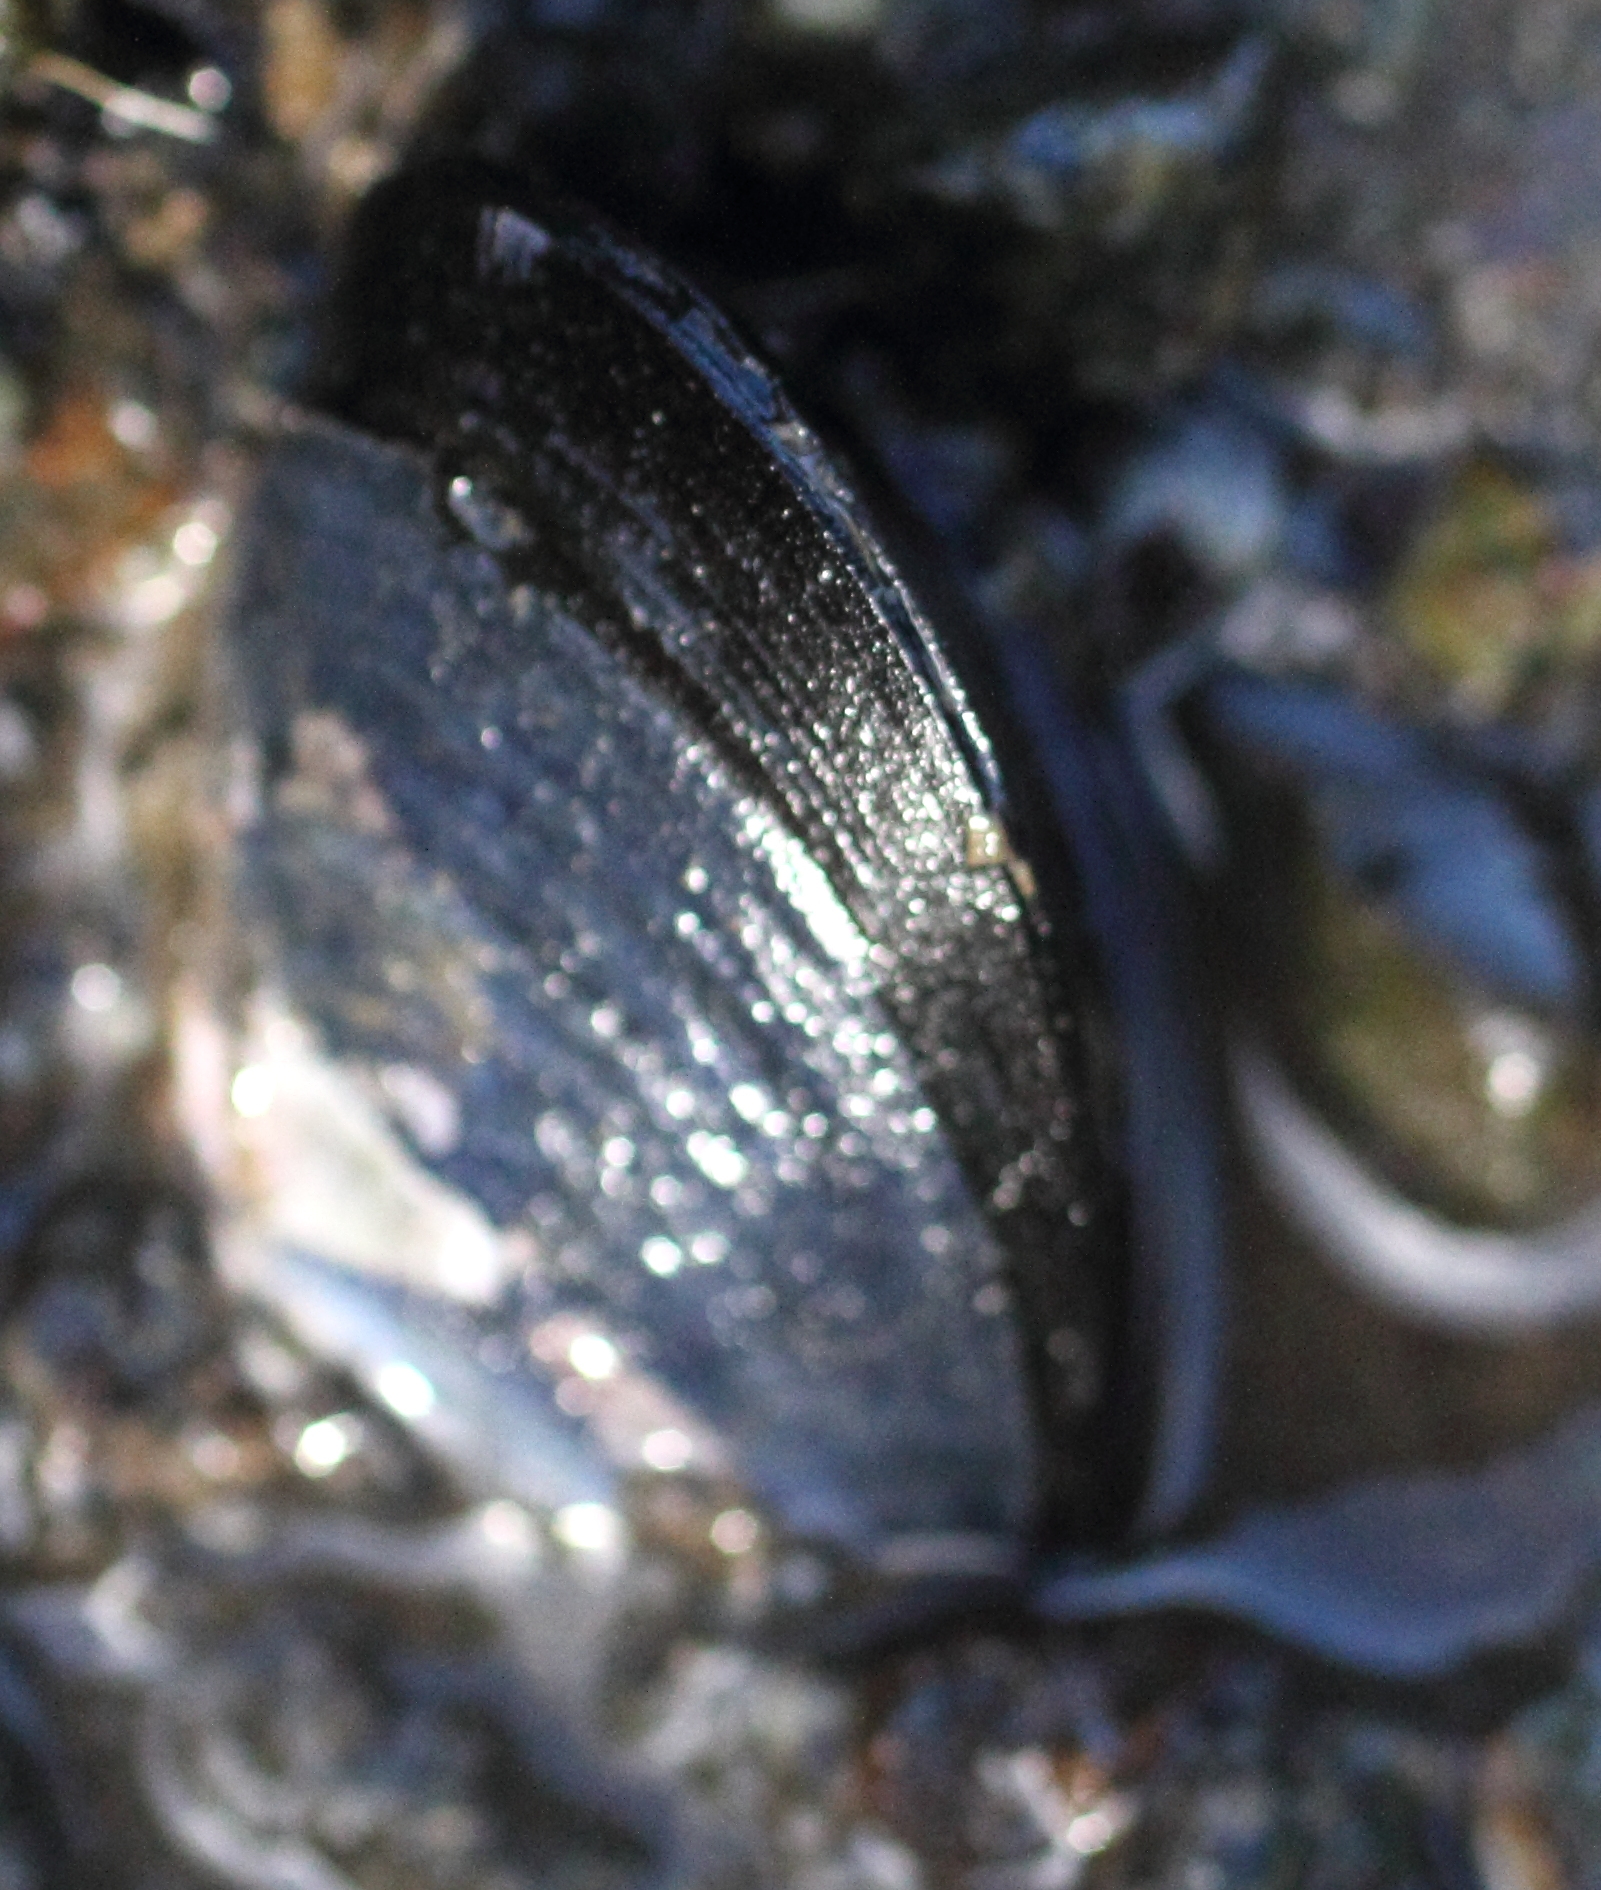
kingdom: Animalia
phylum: Mollusca
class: Bivalvia
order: Mytilida
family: Mytilidae
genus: Mytilus
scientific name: Mytilus trossulus
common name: Northern blue mussel
